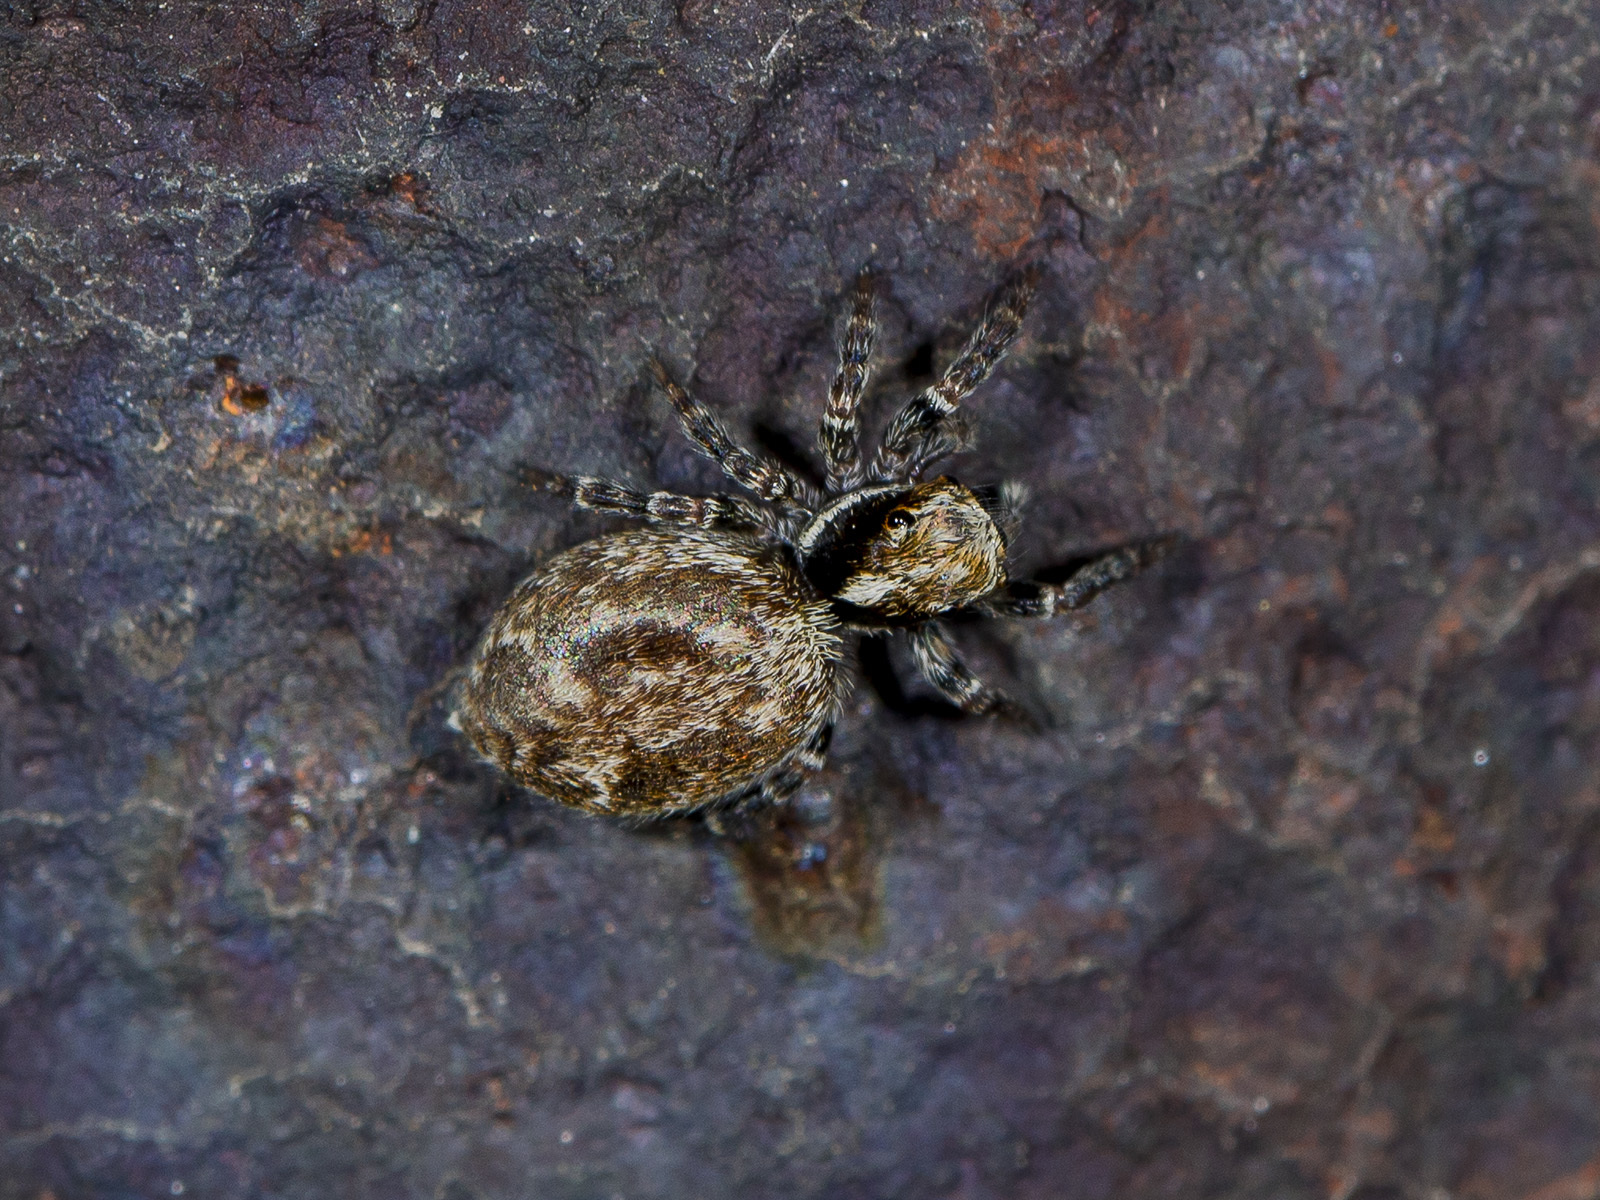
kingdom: Animalia
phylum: Arthropoda
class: Arachnida
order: Araneae
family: Salticidae
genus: Pseudeuophrys
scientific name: Pseudeuophrys obsoleta
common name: Whelk-shell jumper
